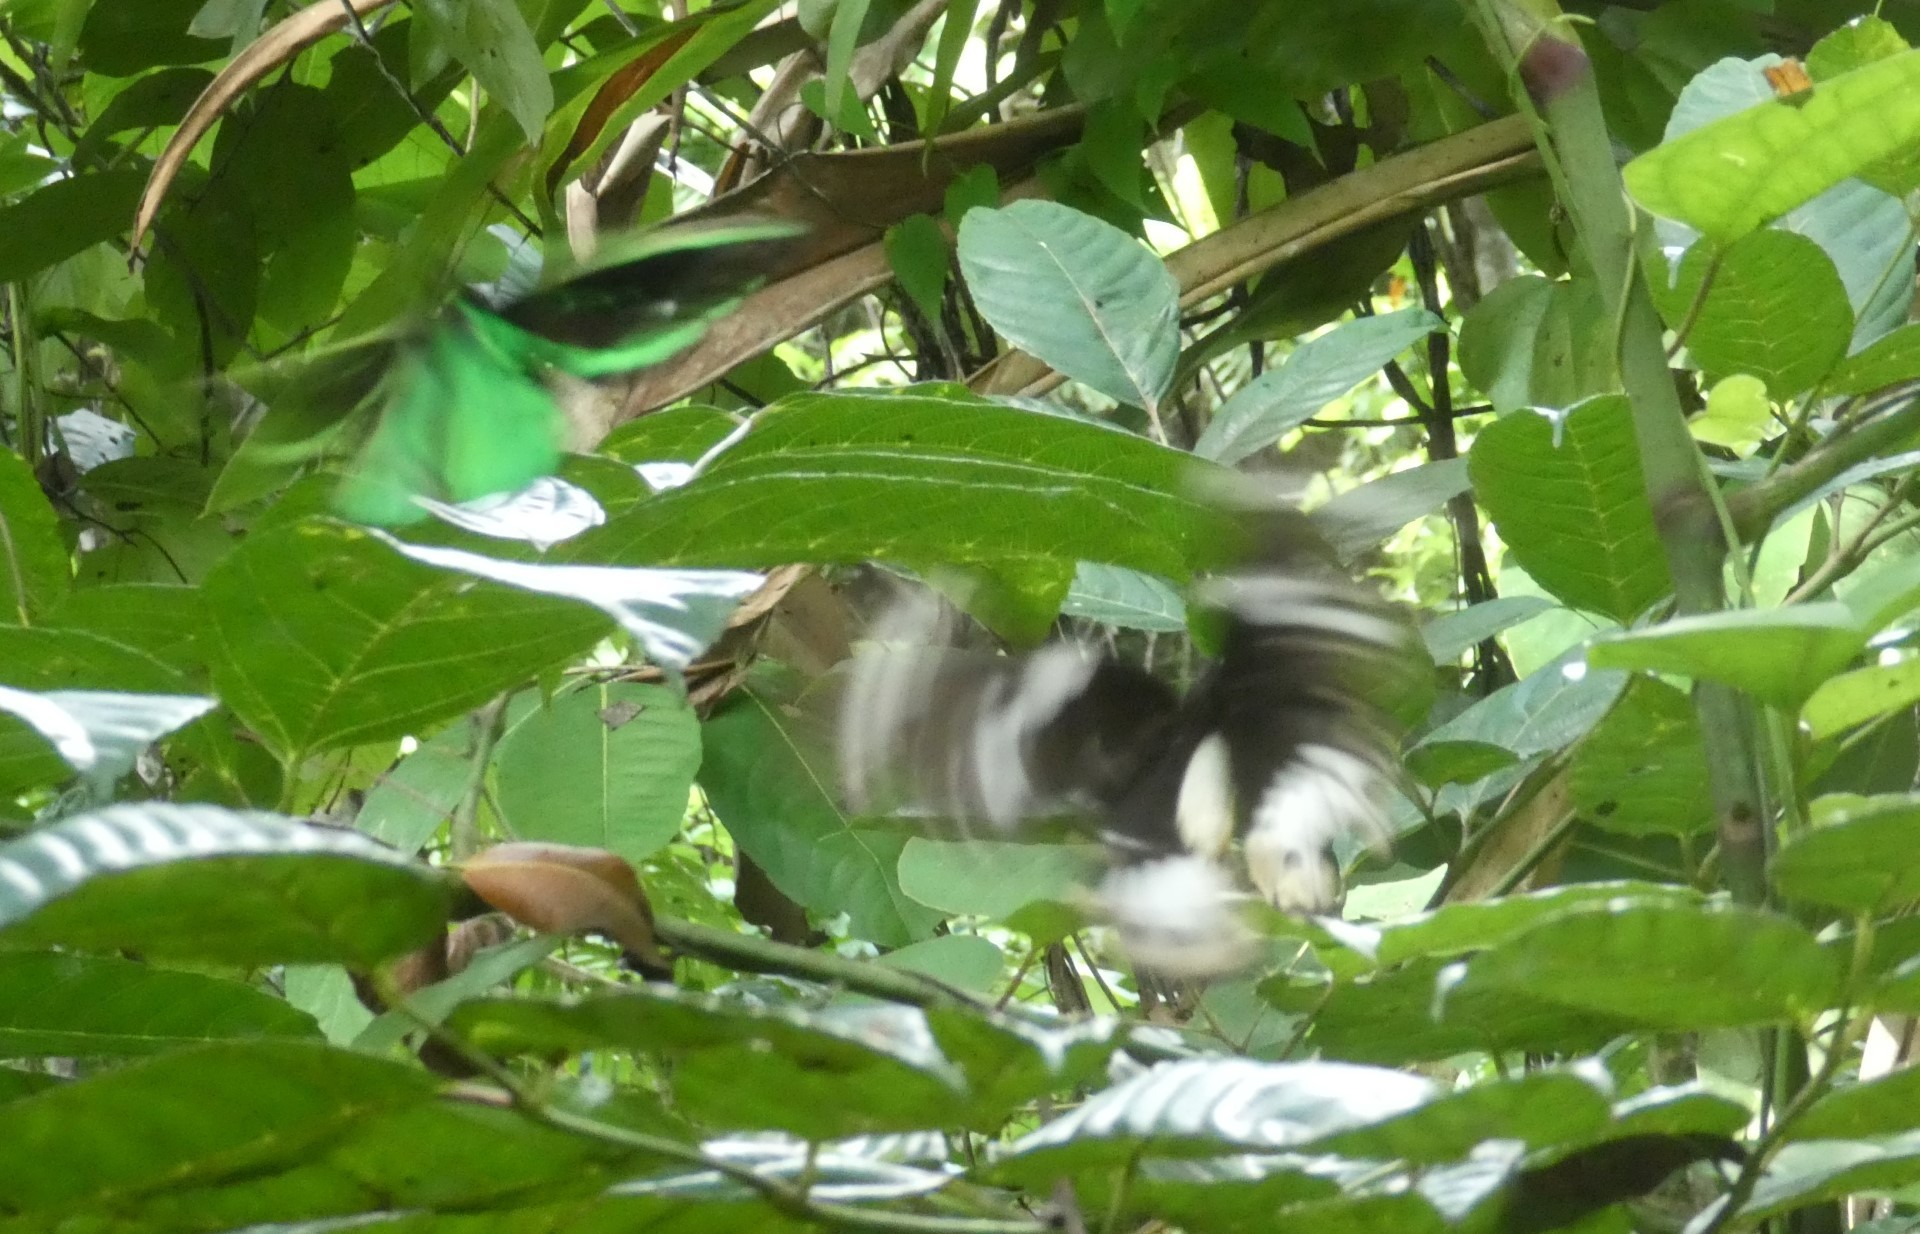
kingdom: Animalia
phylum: Arthropoda
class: Insecta
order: Lepidoptera
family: Papilionidae
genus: Ornithoptera
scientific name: Ornithoptera priamus
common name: Cape york birdwing
